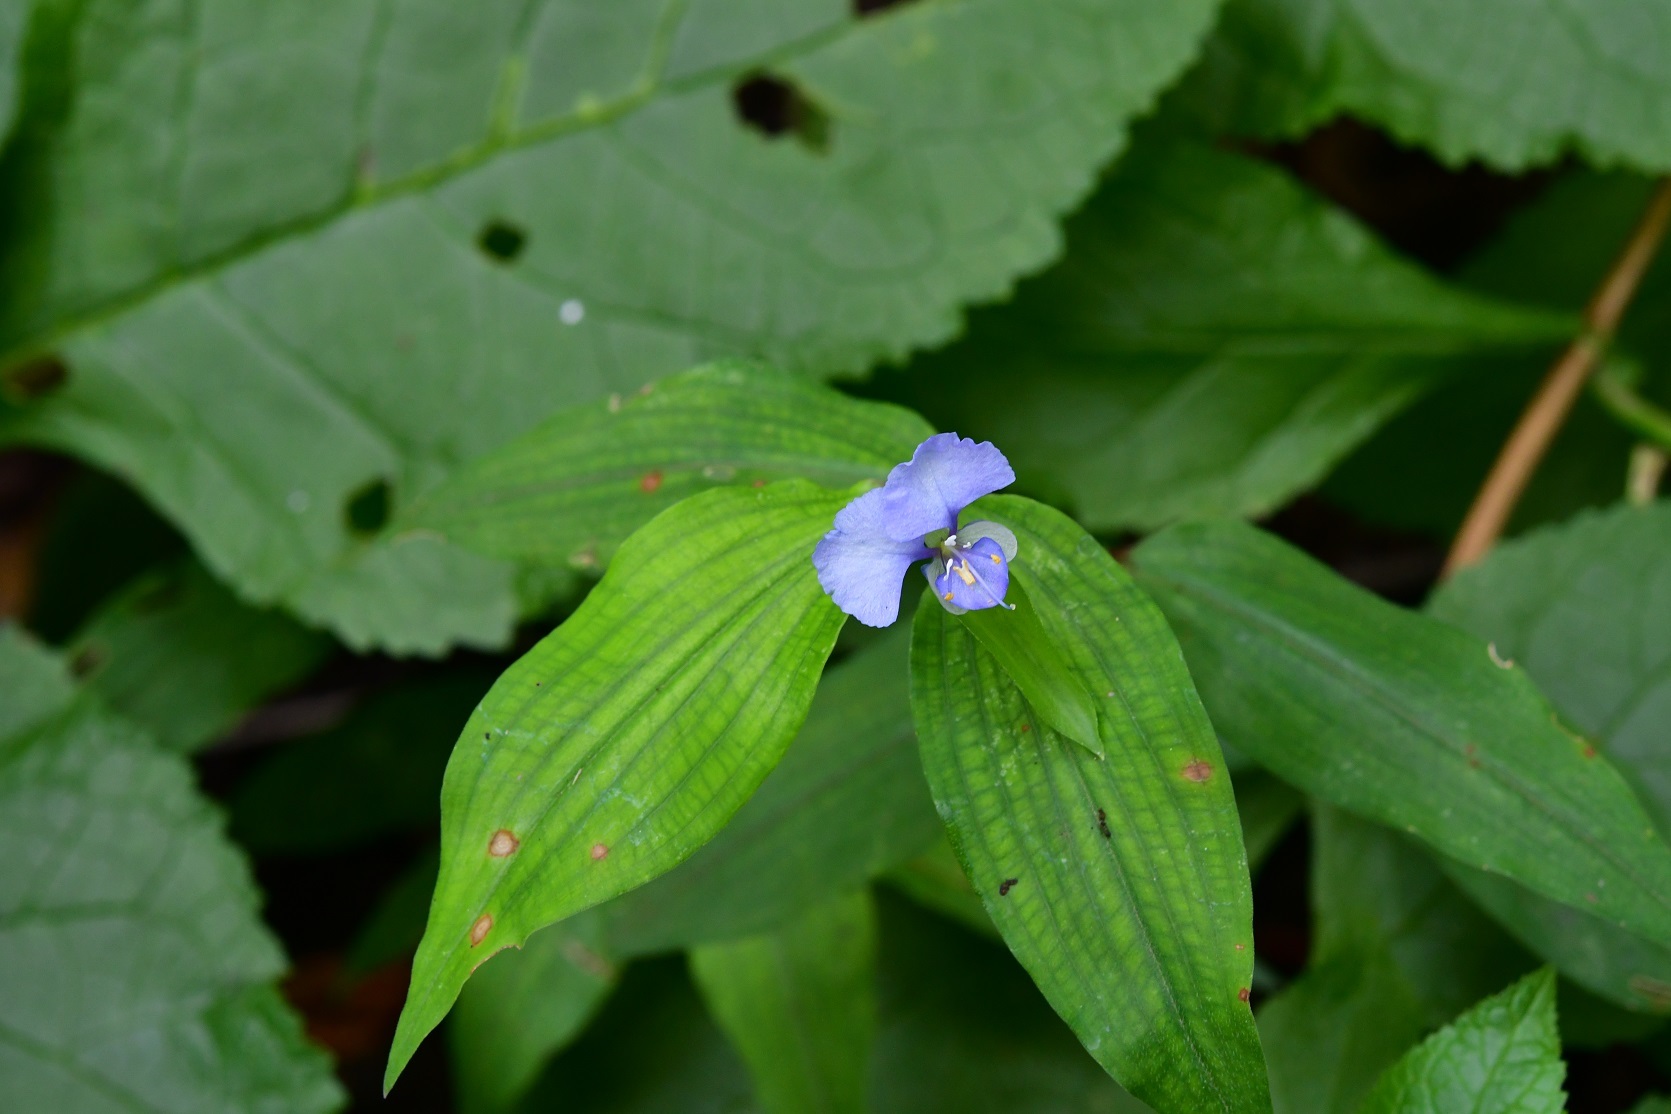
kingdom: Plantae
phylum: Tracheophyta
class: Liliopsida
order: Commelinales
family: Commelinaceae
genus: Commelina
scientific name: Commelina diffusa
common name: Climbing dayflower
